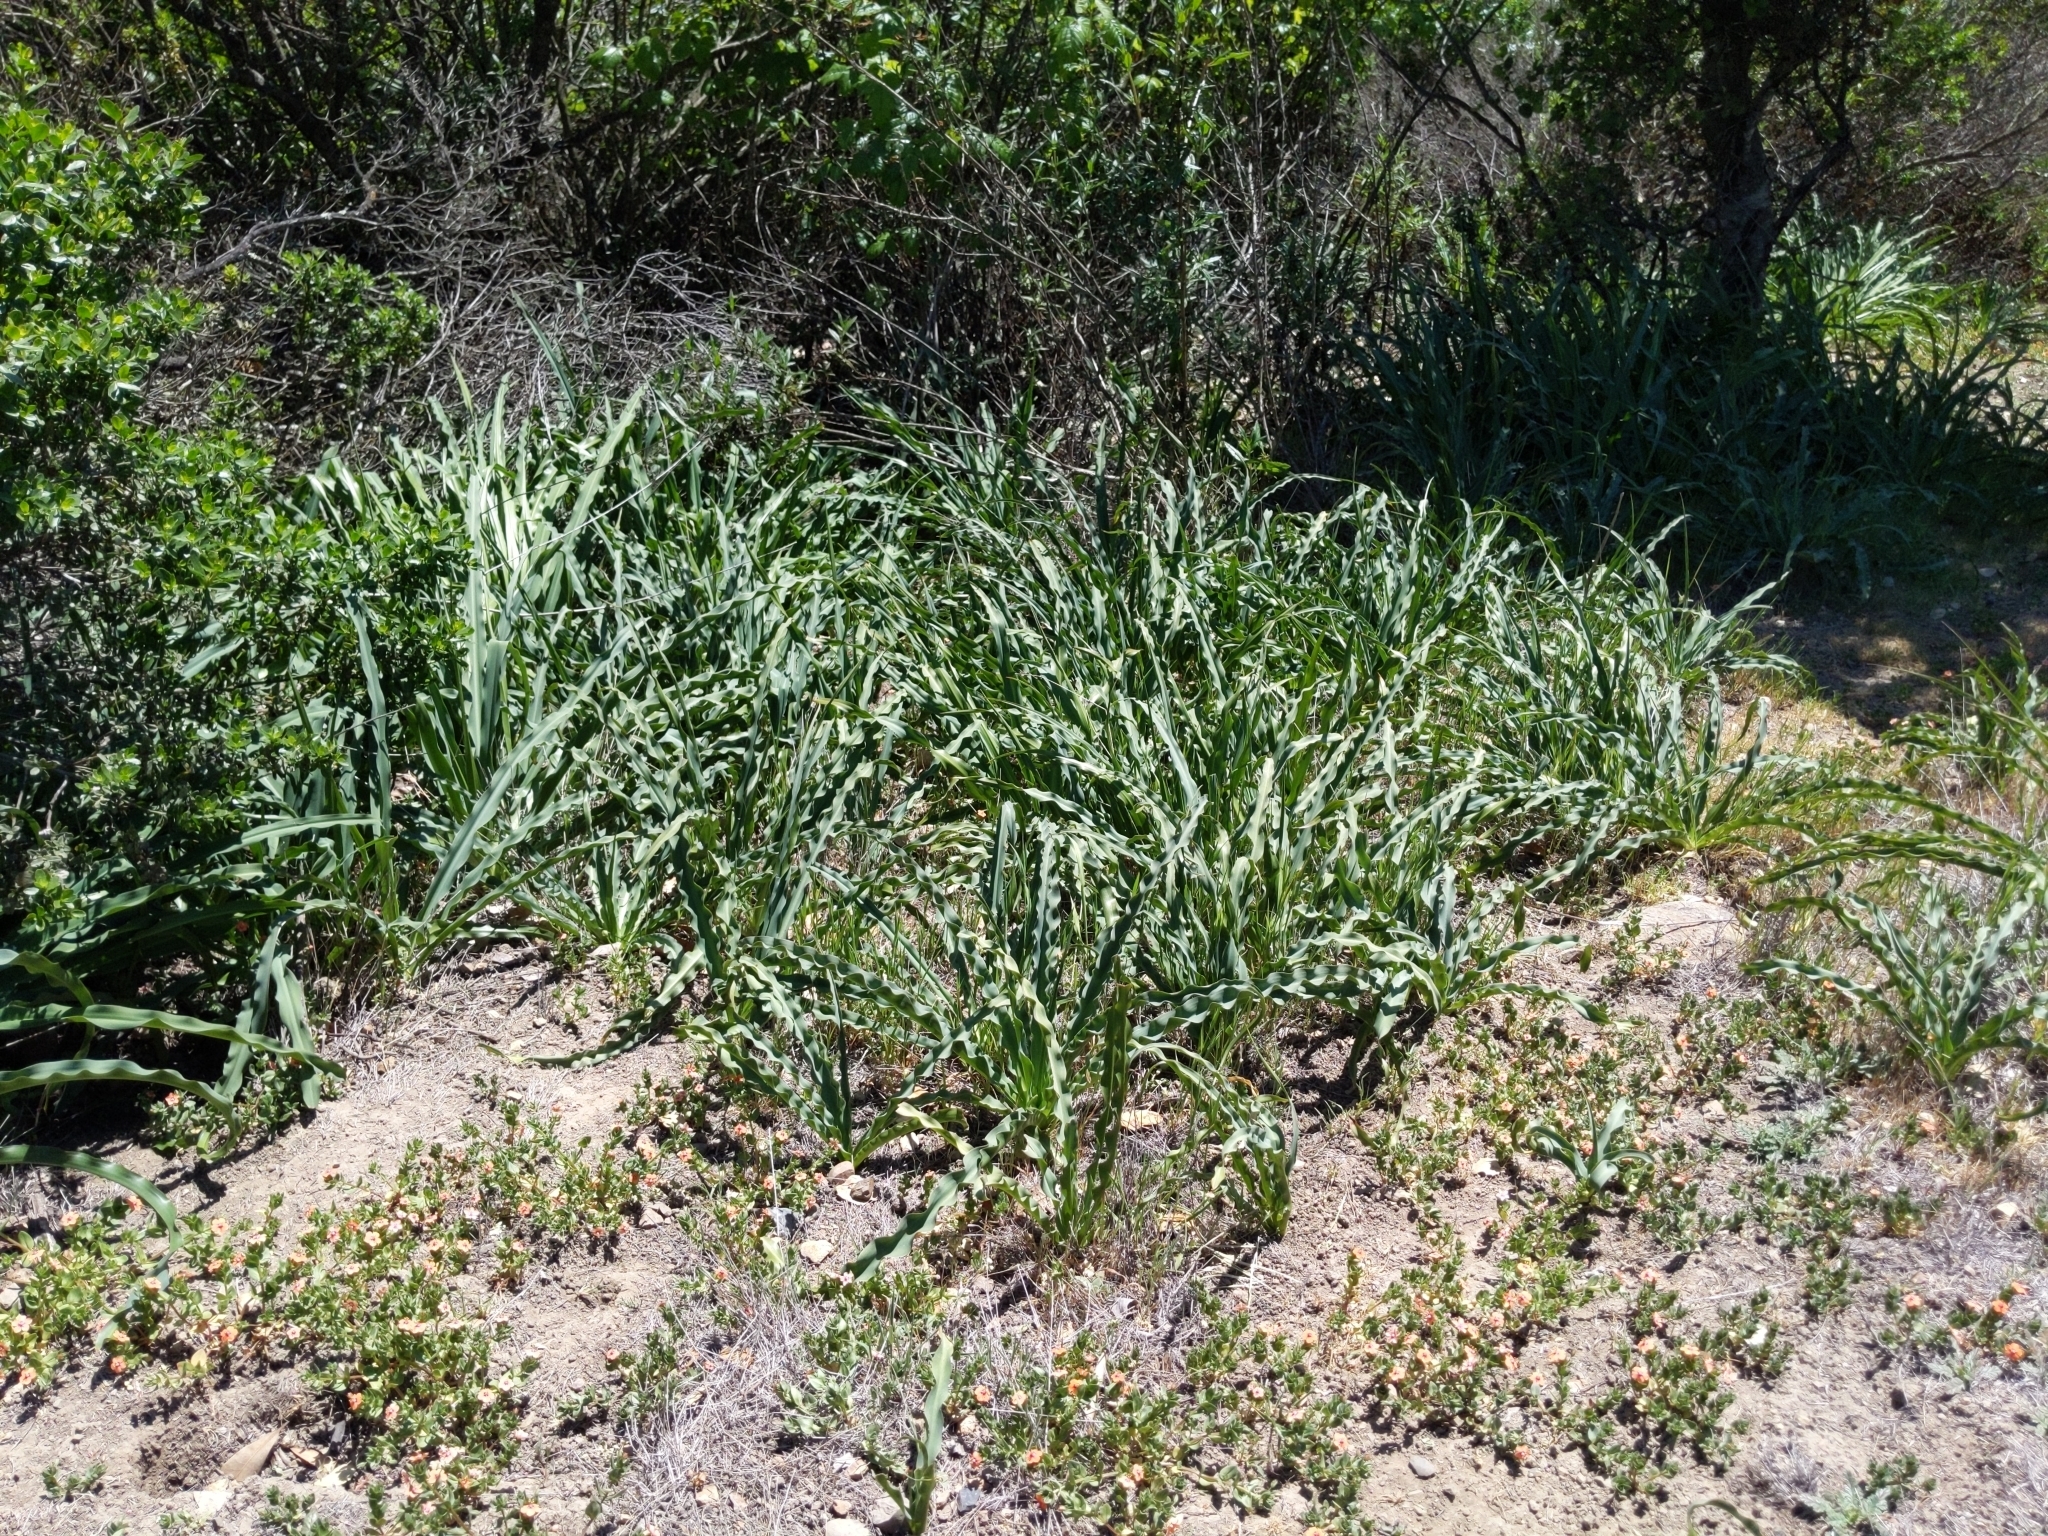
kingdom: Plantae
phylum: Tracheophyta
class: Liliopsida
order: Asparagales
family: Asparagaceae
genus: Chlorogalum
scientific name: Chlorogalum pomeridianum
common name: Amole
